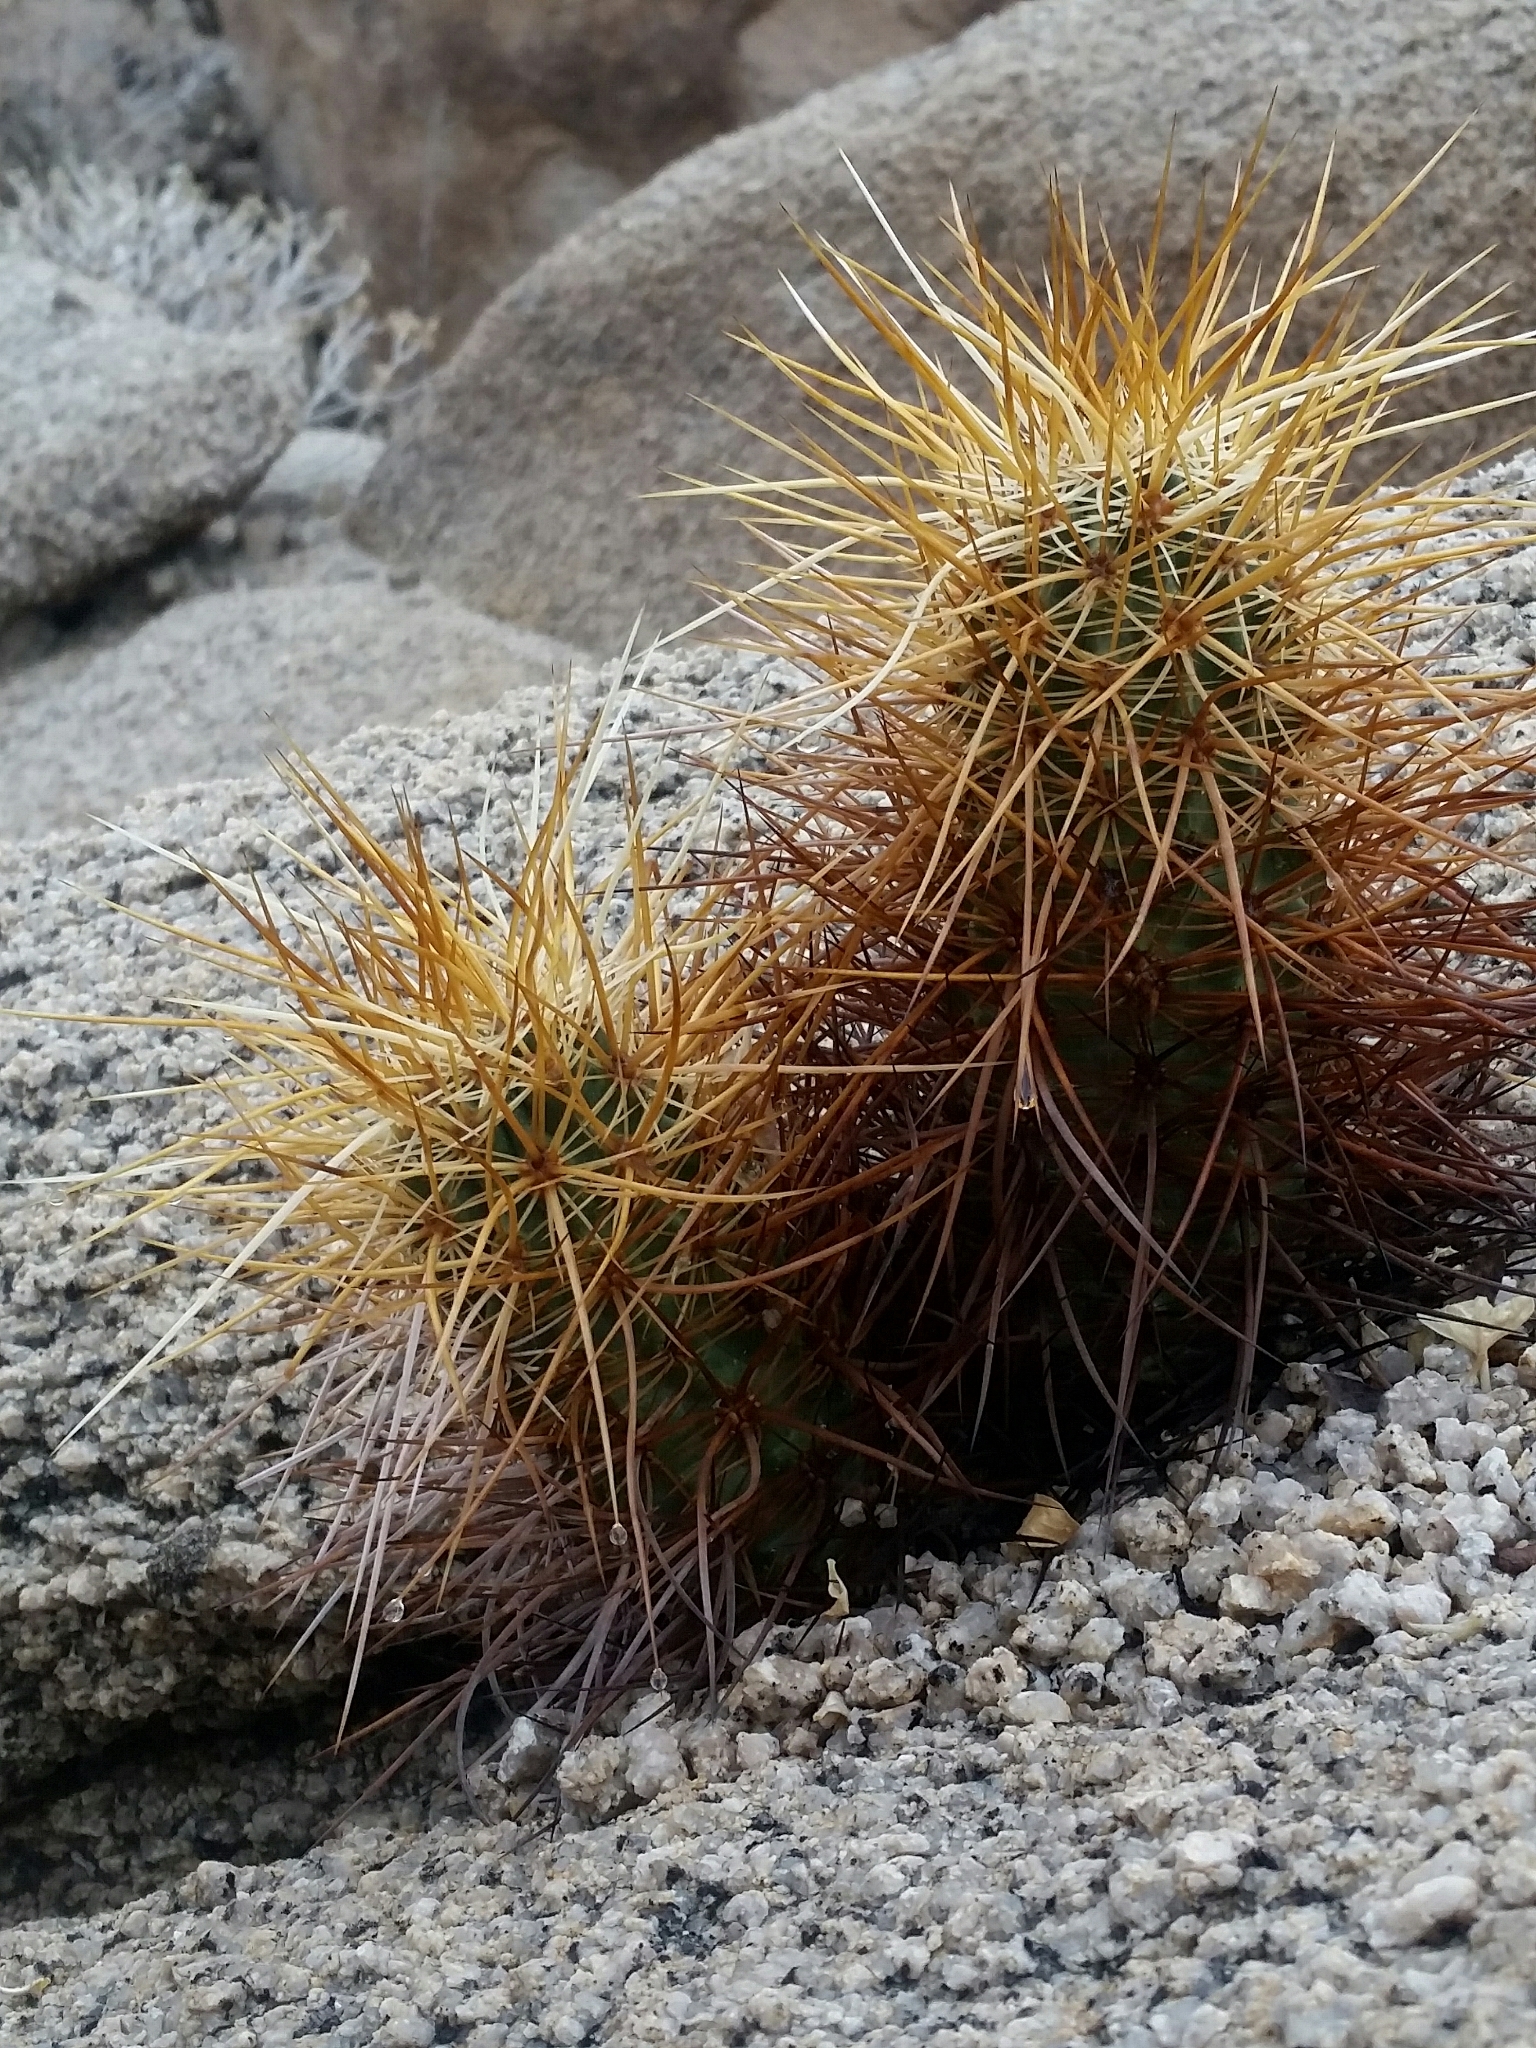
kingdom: Plantae
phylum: Tracheophyta
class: Magnoliopsida
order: Caryophyllales
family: Cactaceae
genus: Echinocereus
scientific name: Echinocereus engelmannii
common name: Engelmann's hedgehog cactus
